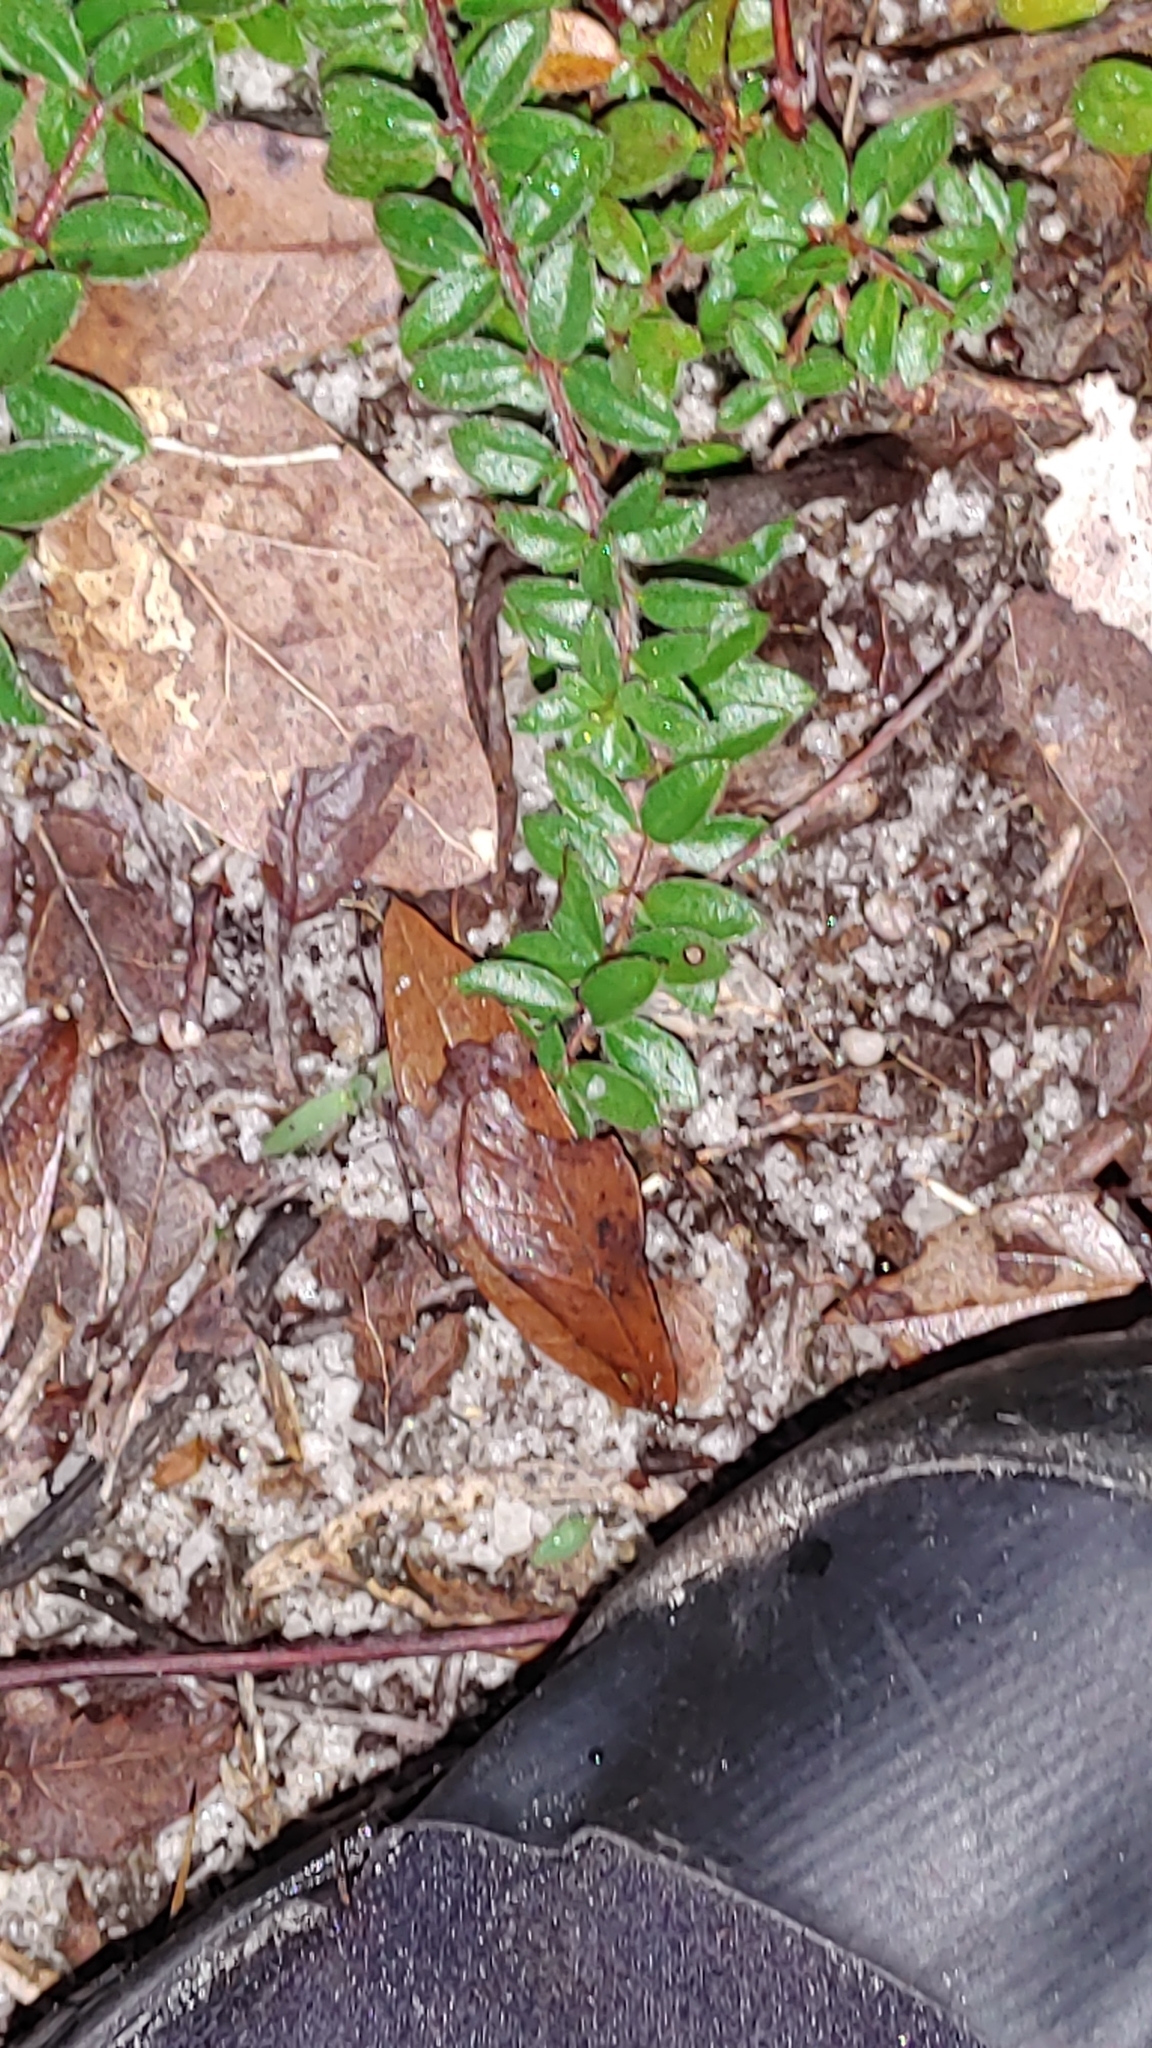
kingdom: Plantae
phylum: Tracheophyta
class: Magnoliopsida
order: Malvales
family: Cistaceae
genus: Lechea
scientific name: Lechea mucronata
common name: Hairy pinweed
